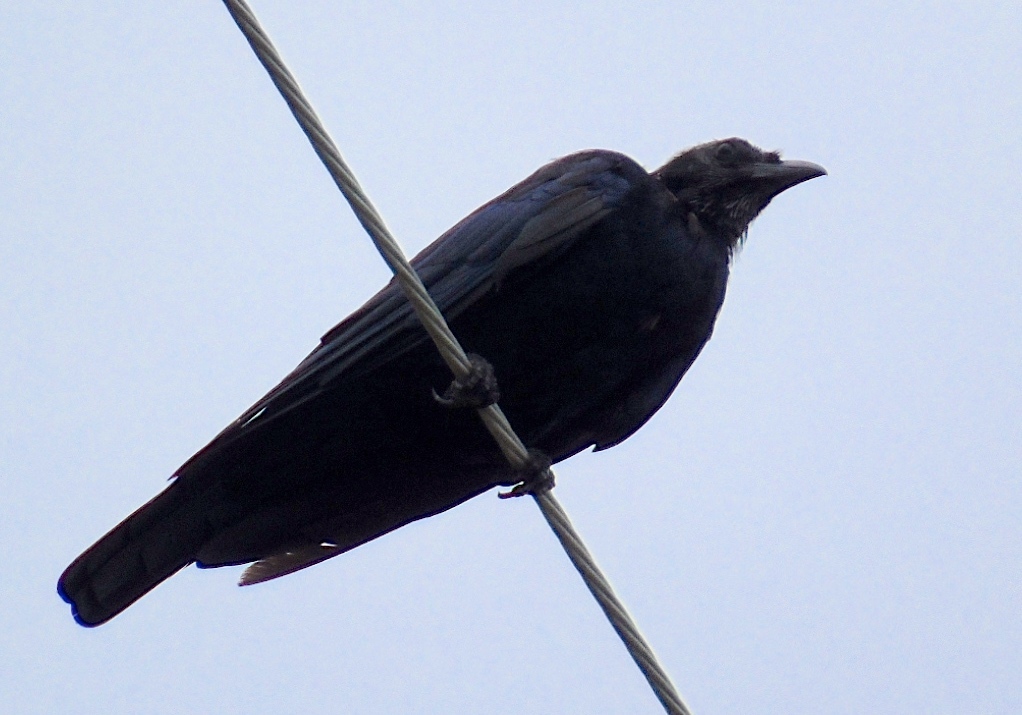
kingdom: Animalia
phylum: Chordata
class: Aves
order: Passeriformes
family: Corvidae
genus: Corvus
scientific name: Corvus sinaloae
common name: Sinaloa crow
